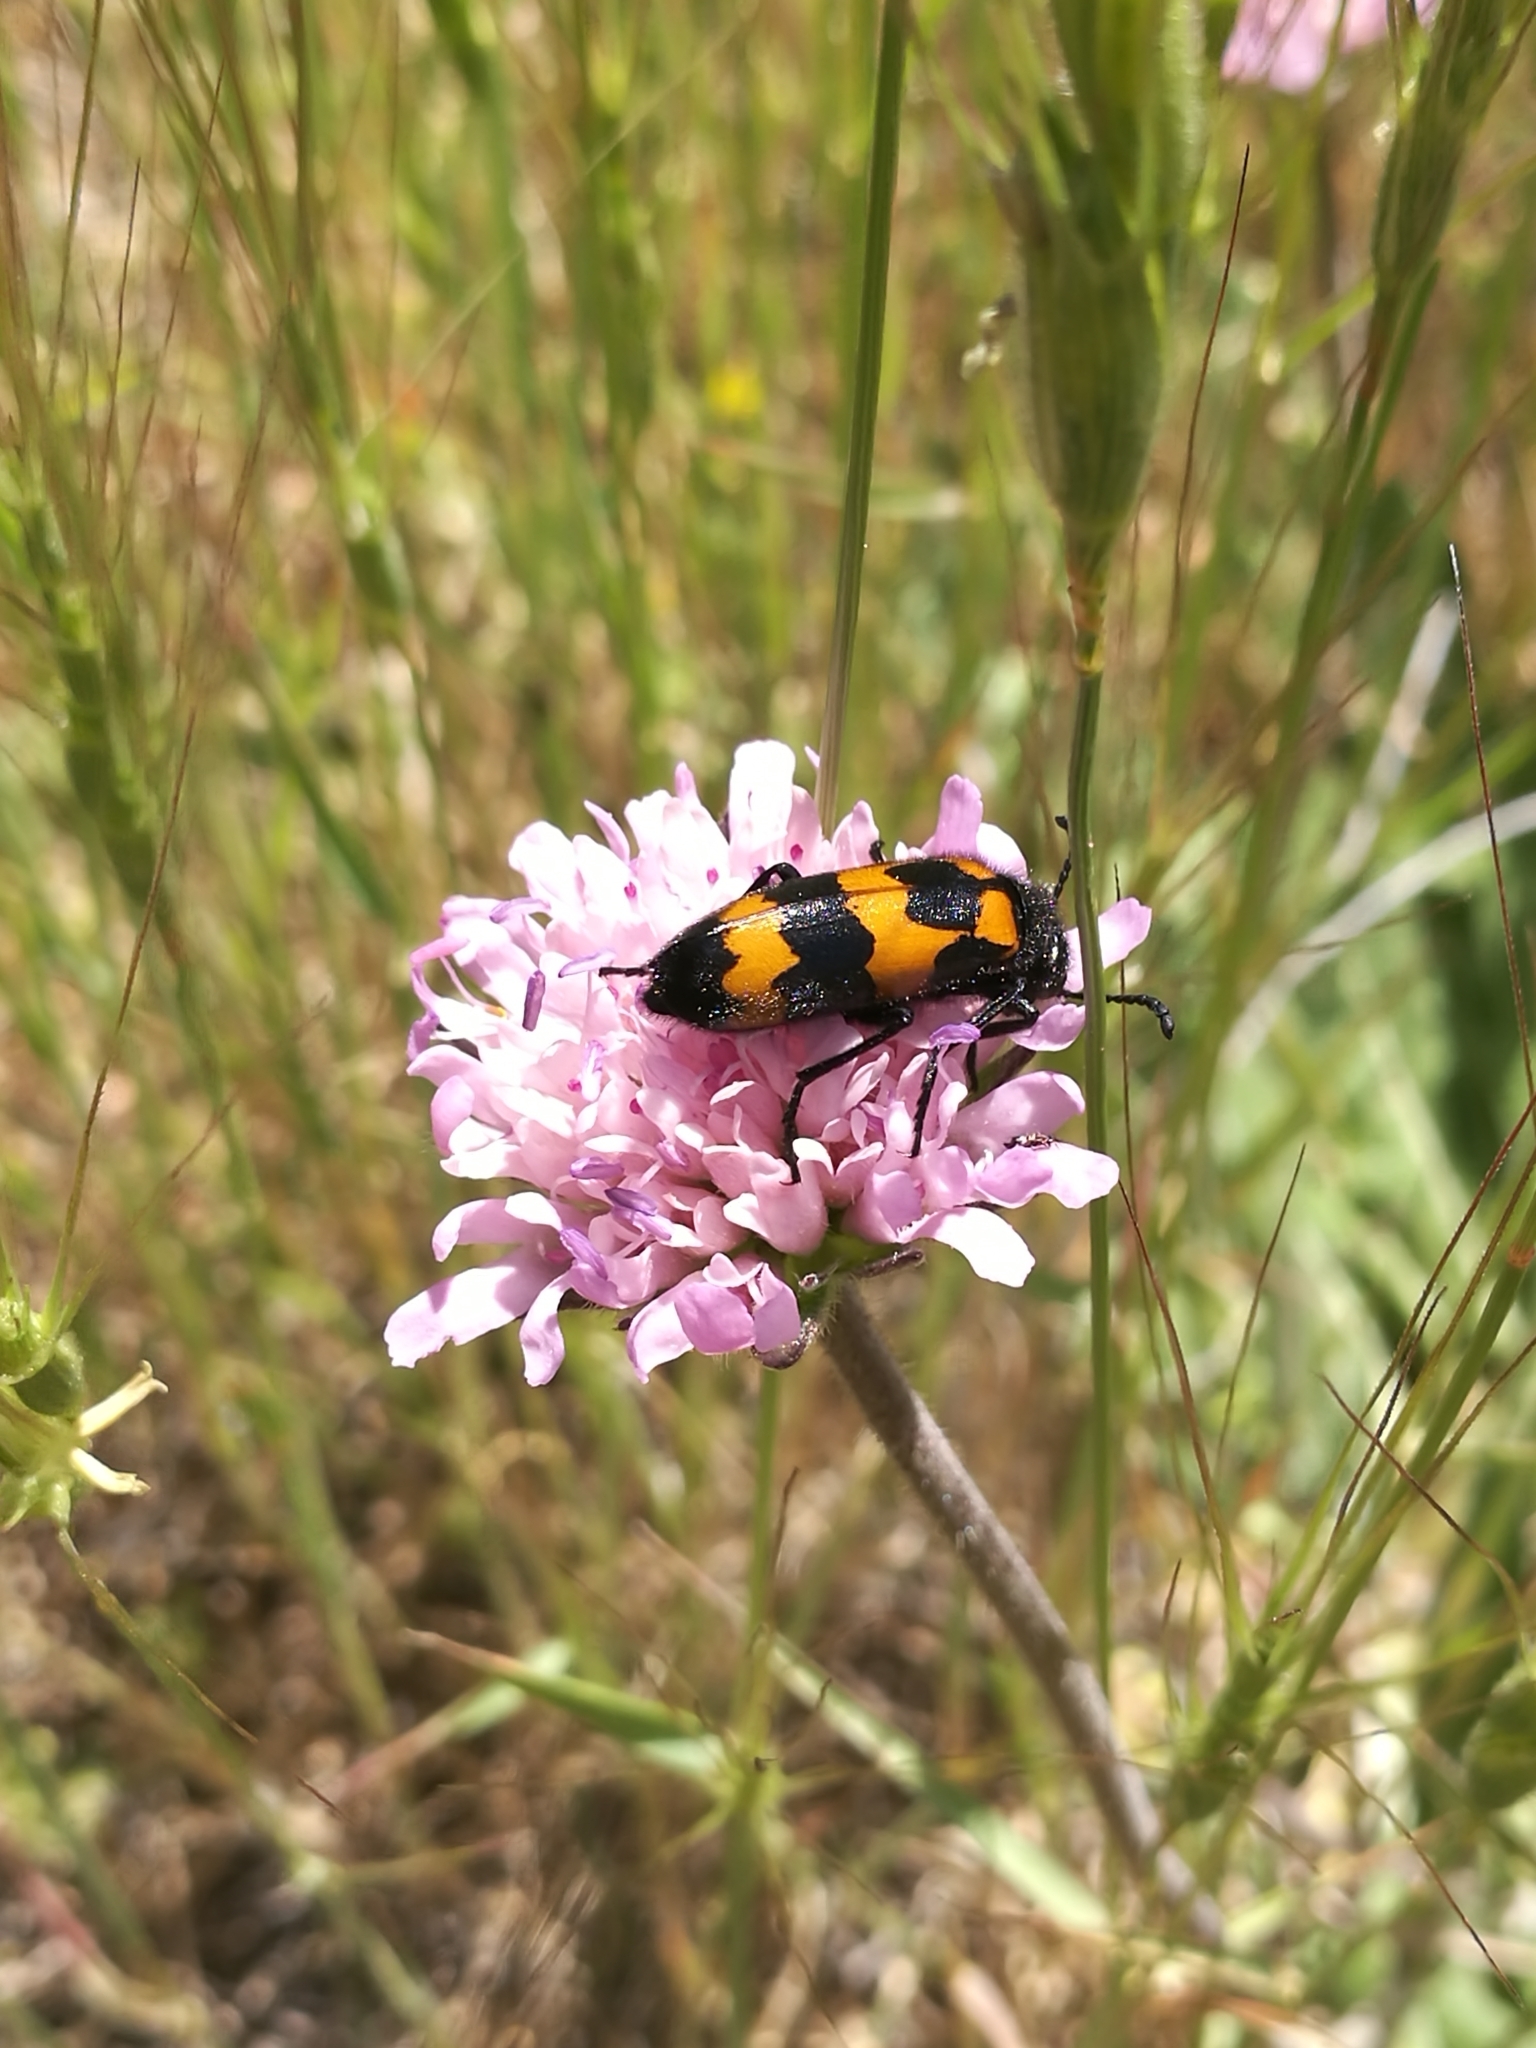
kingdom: Animalia
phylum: Arthropoda
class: Insecta
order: Coleoptera
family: Meloidae
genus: Mylabris
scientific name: Mylabris variabilis
